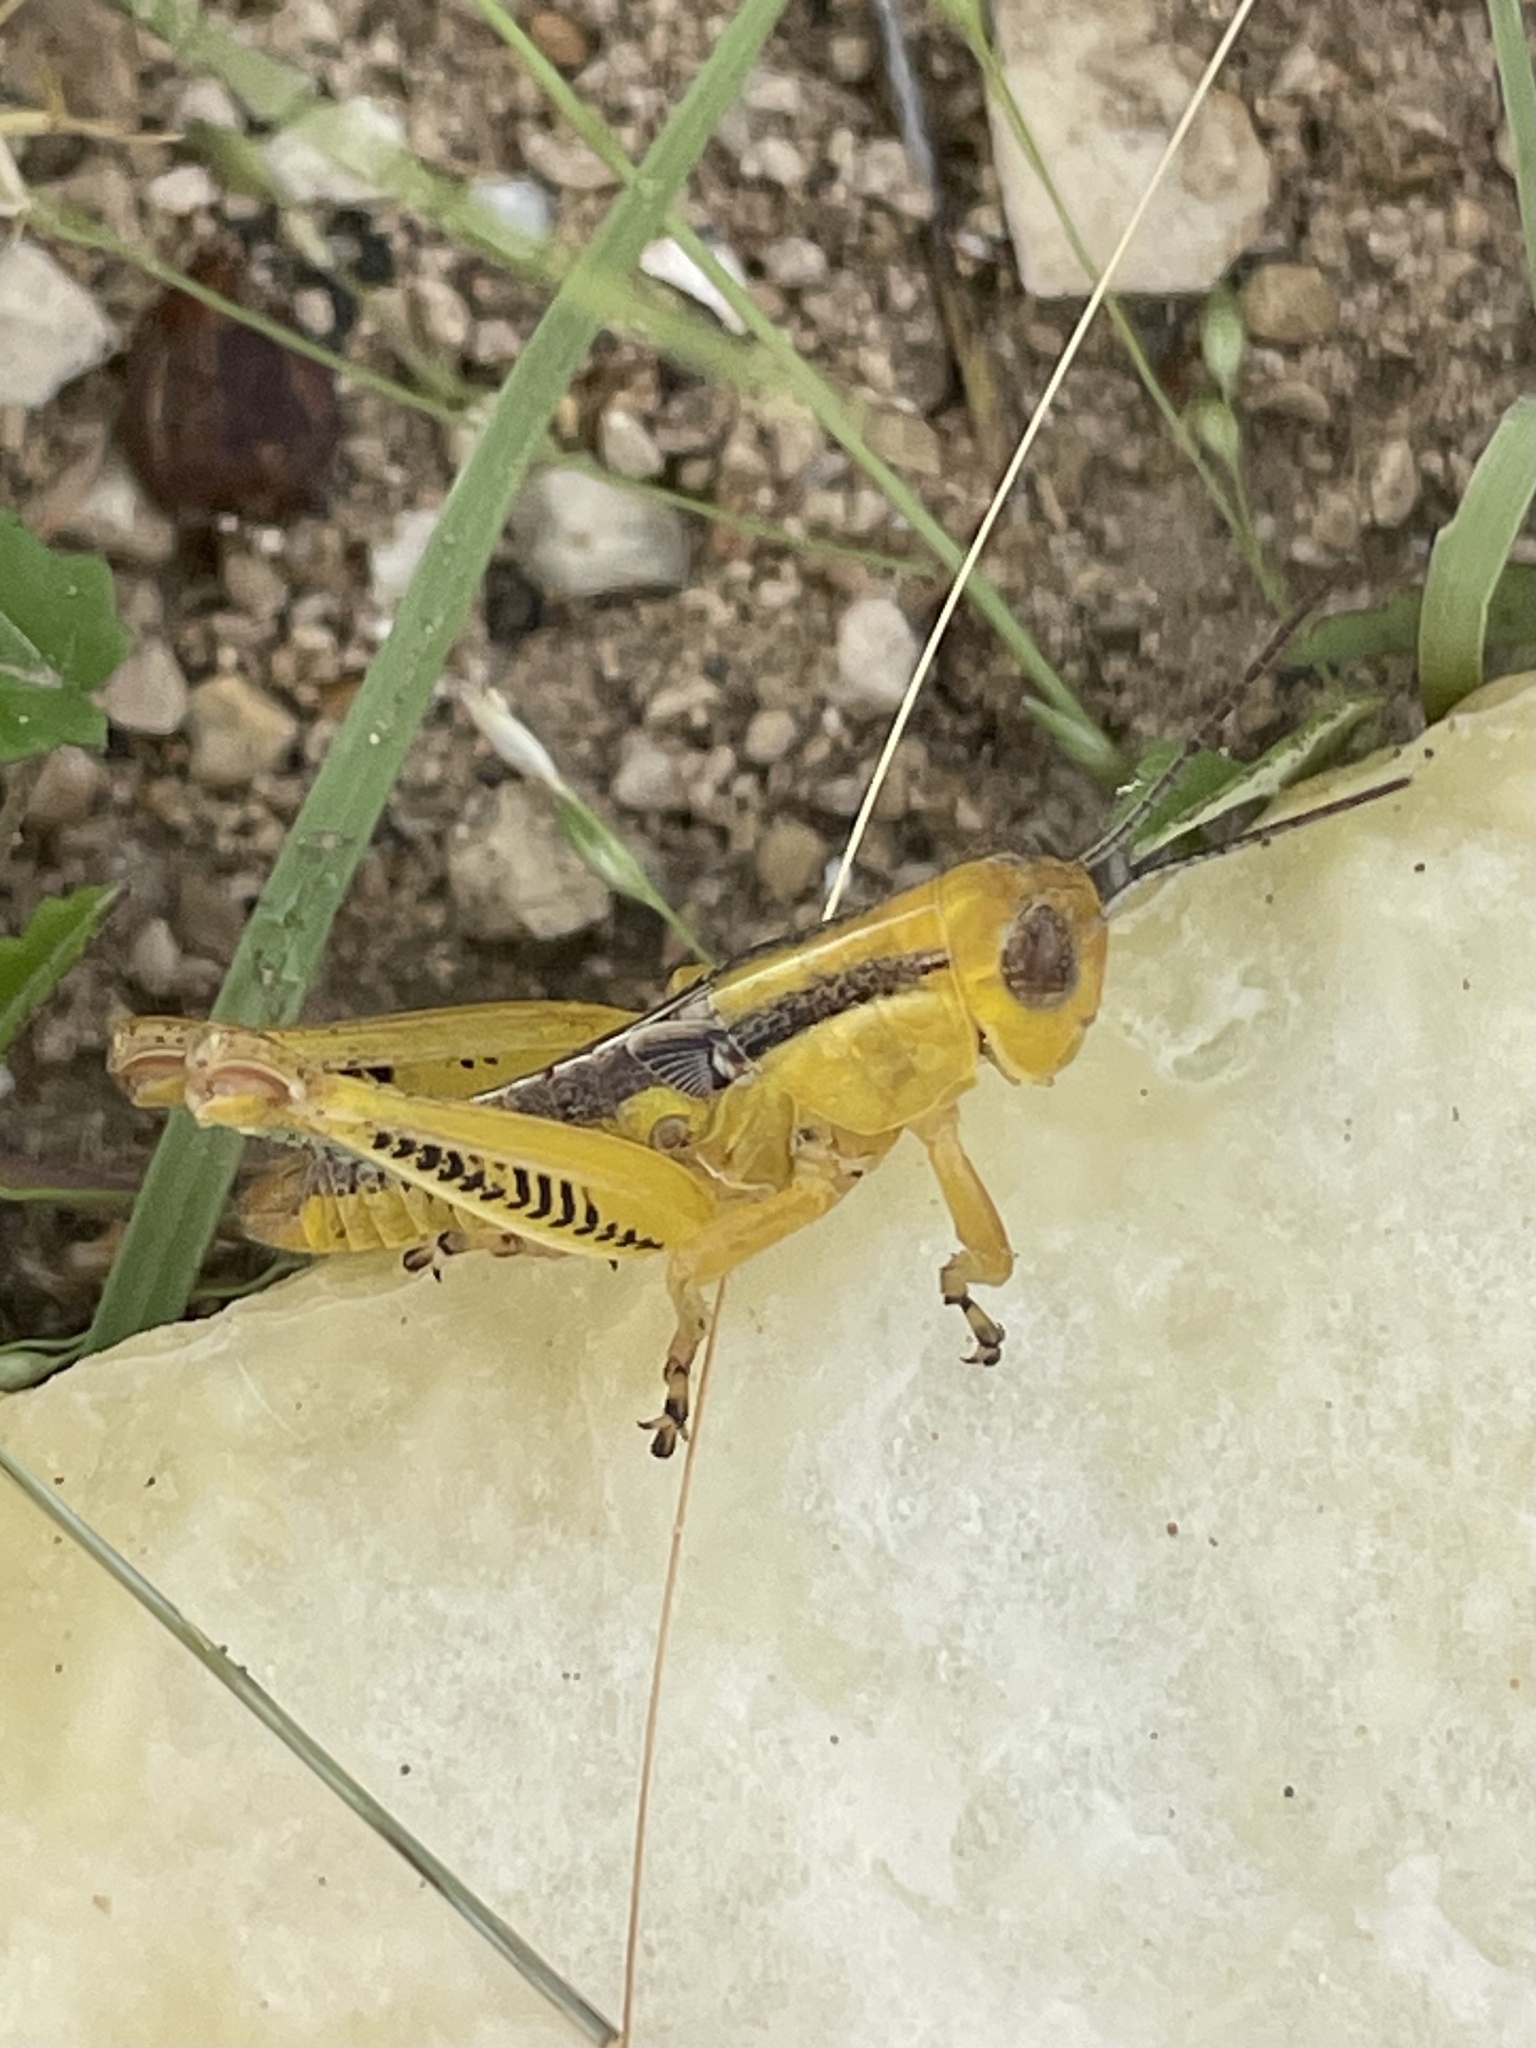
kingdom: Animalia
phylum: Arthropoda
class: Insecta
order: Orthoptera
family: Acrididae
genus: Melanoplus
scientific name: Melanoplus differentialis
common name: Differential grasshopper
